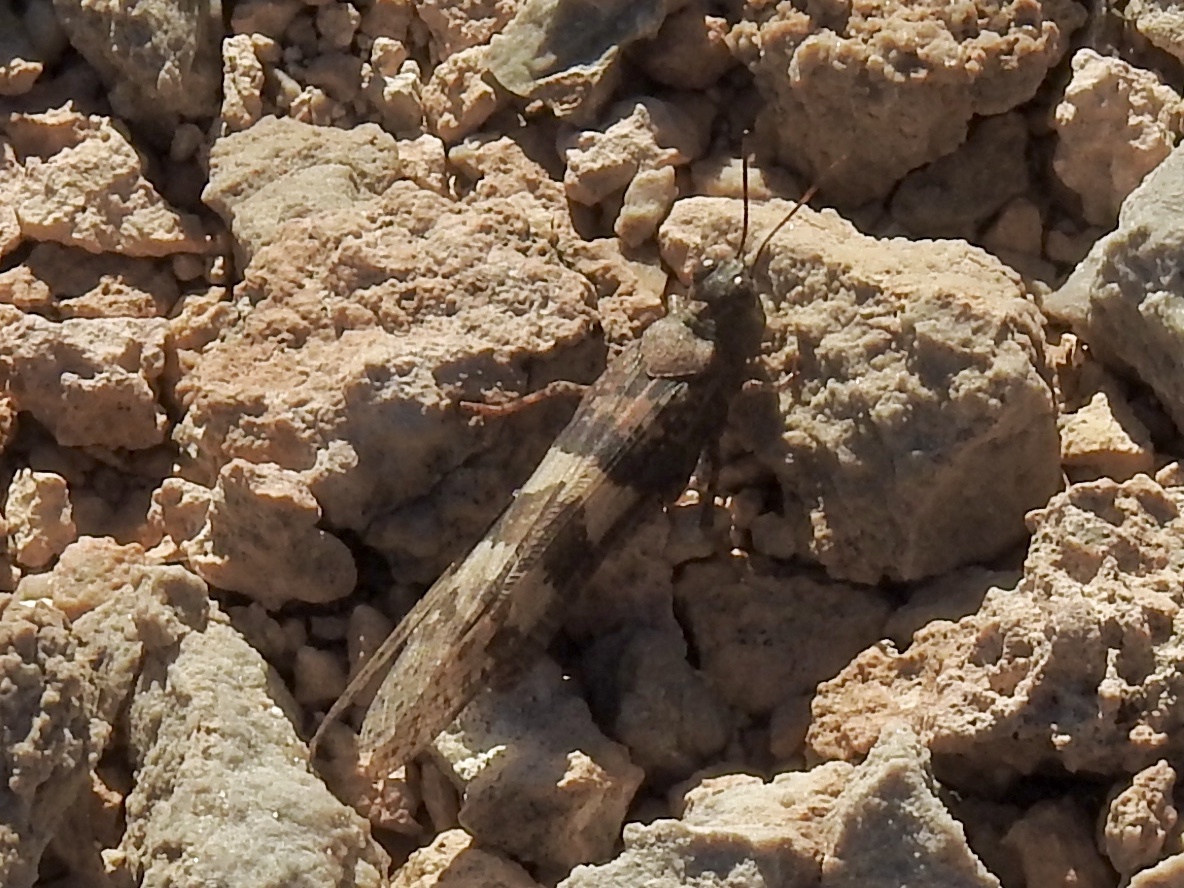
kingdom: Animalia
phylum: Arthropoda
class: Insecta
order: Orthoptera
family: Acrididae
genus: Trimerotropis
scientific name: Trimerotropis pallidipennis
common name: Pallid-winged grasshopper
